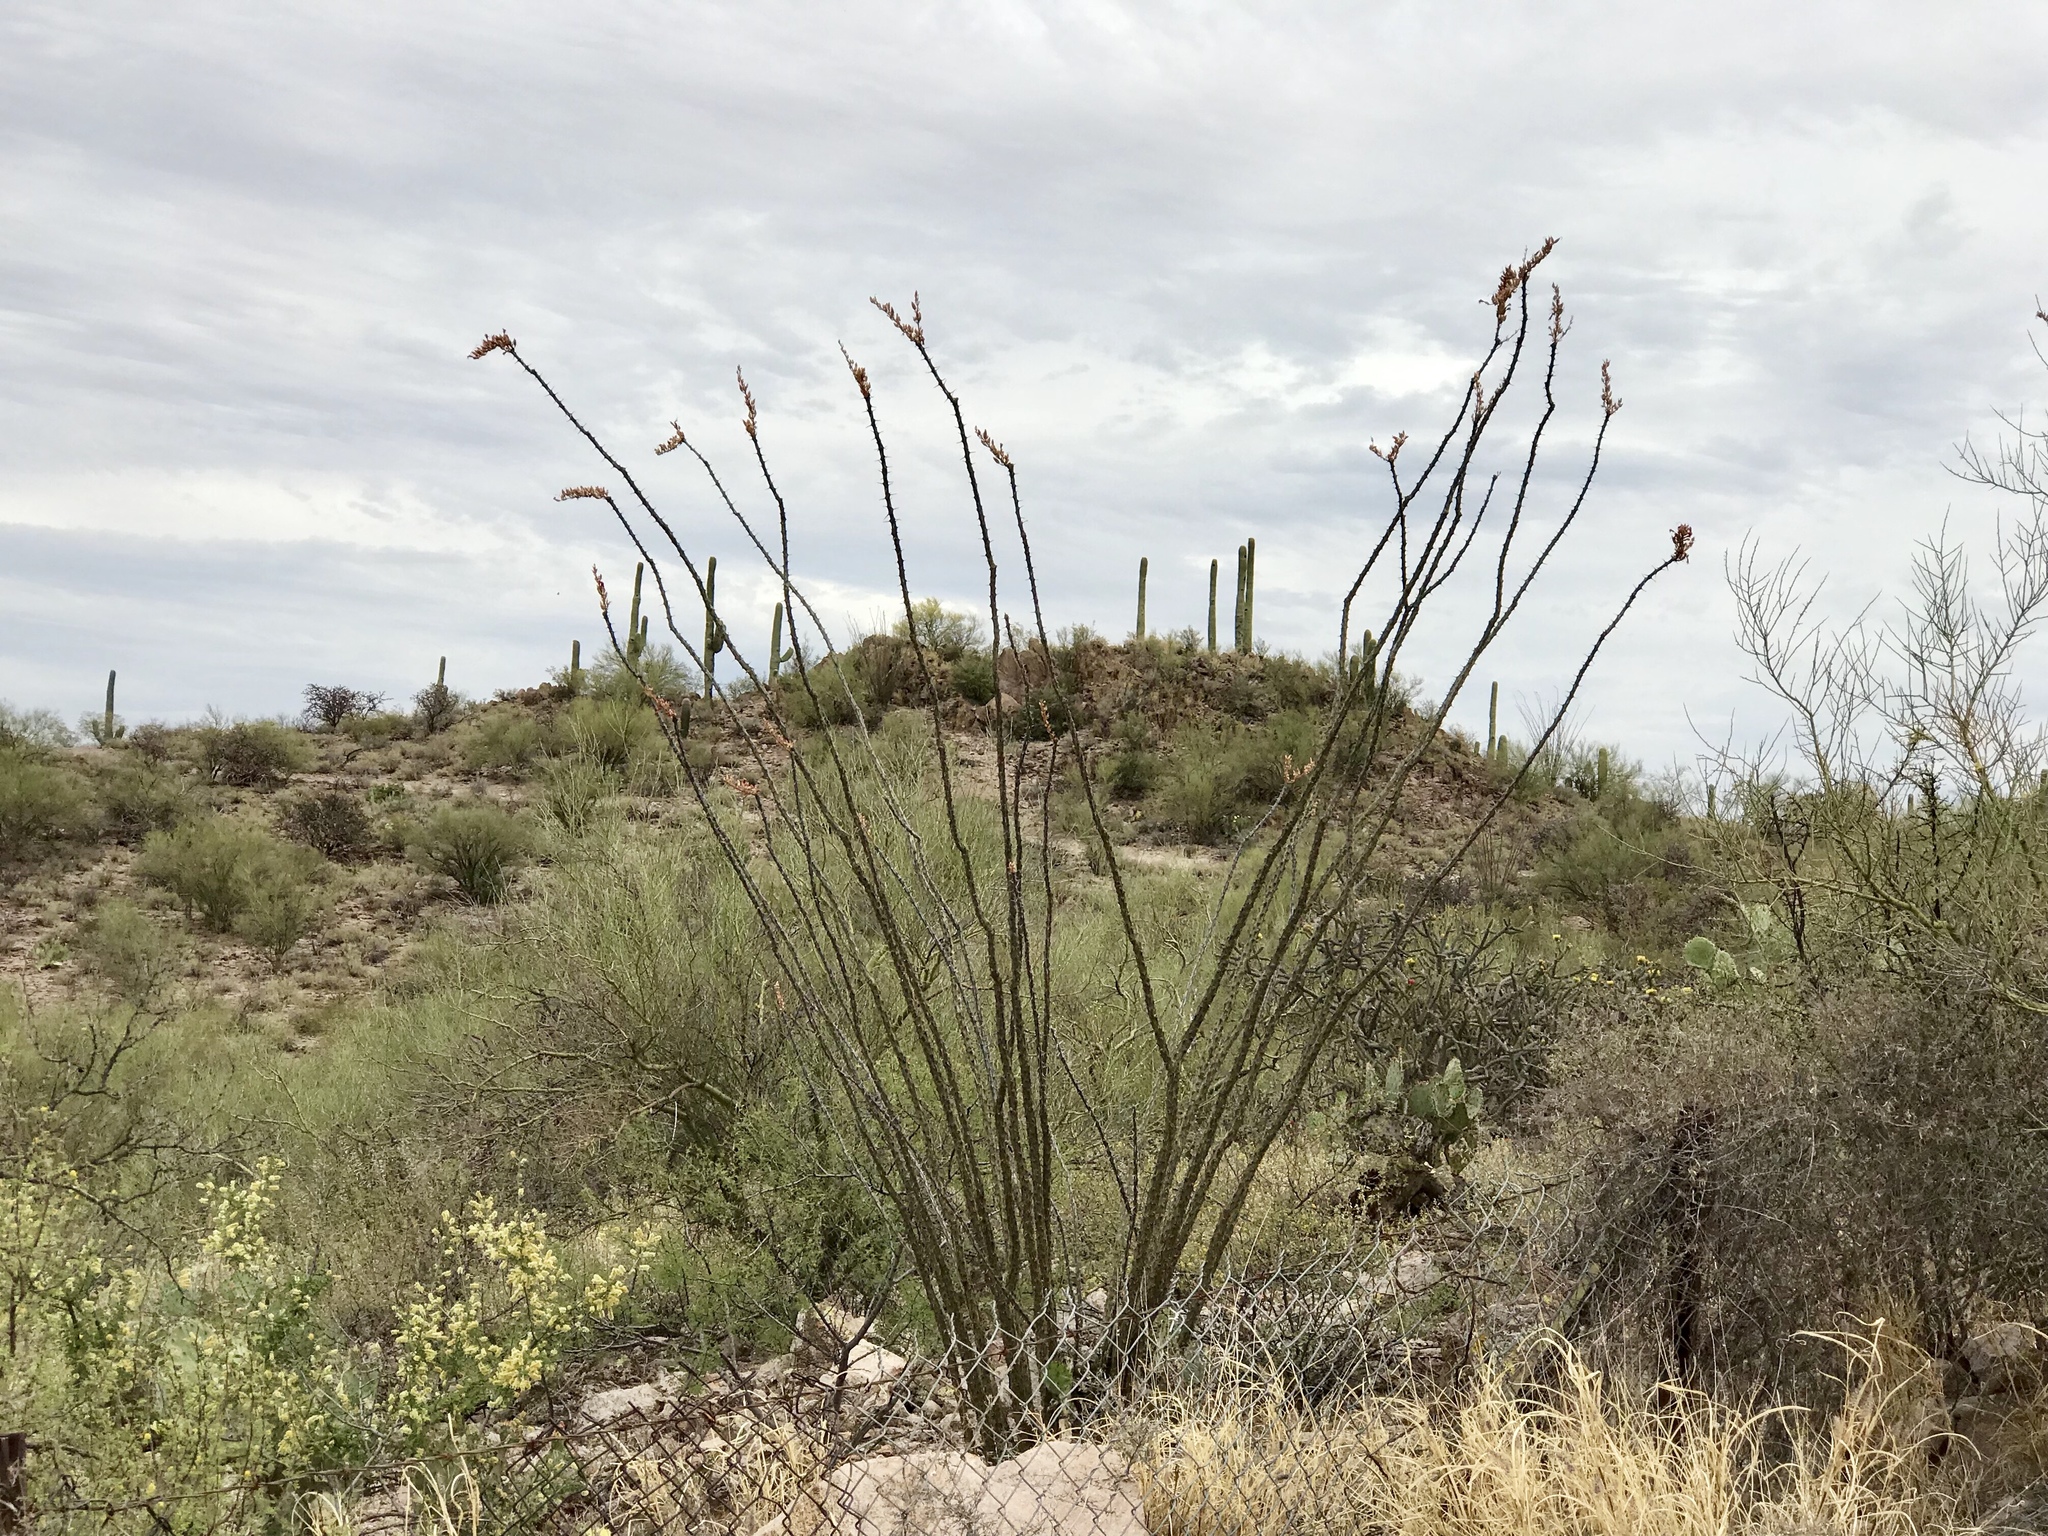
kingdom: Plantae
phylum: Tracheophyta
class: Magnoliopsida
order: Ericales
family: Fouquieriaceae
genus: Fouquieria
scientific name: Fouquieria splendens
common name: Vine-cactus
